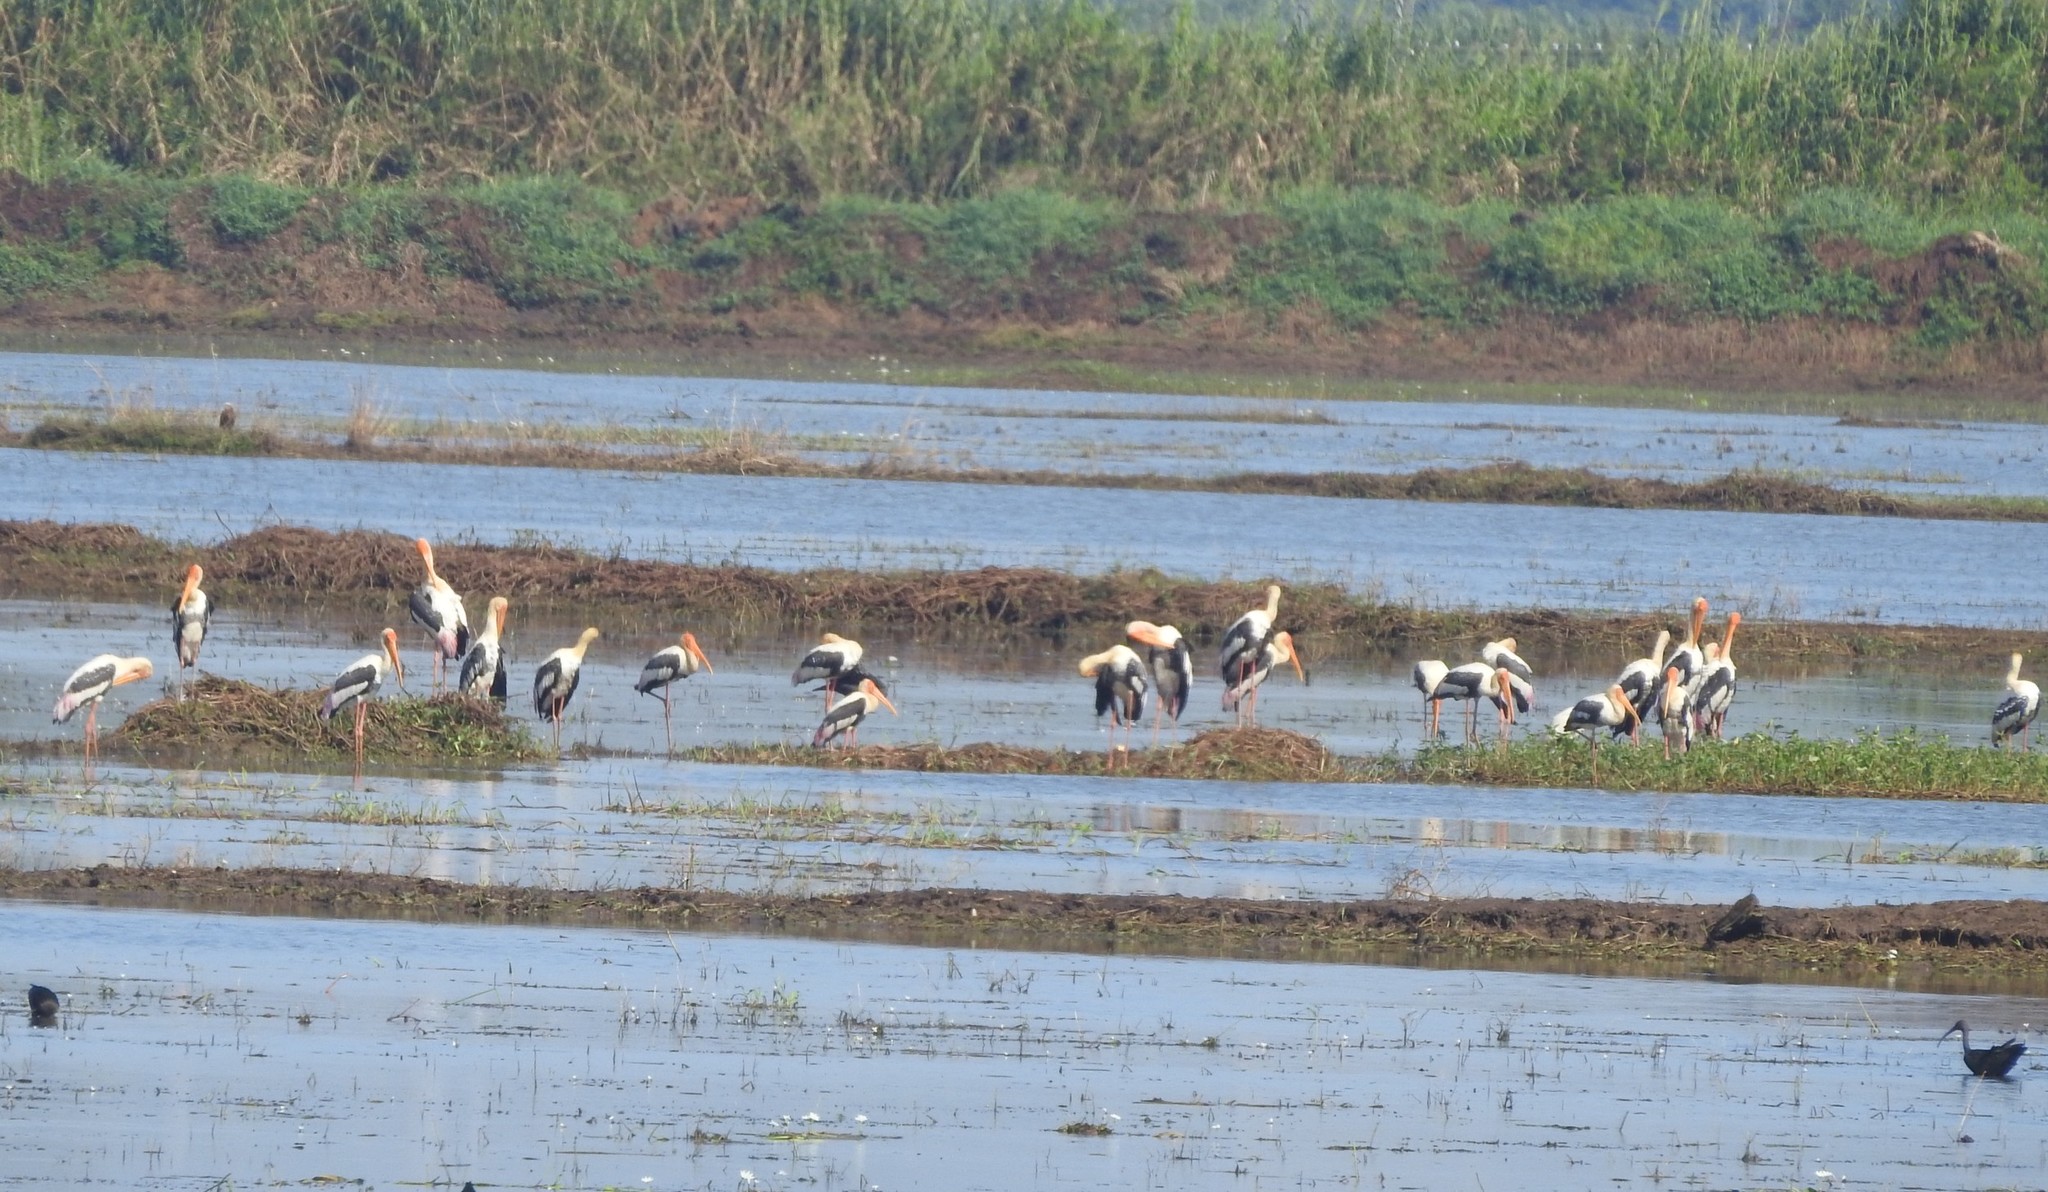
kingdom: Animalia
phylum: Chordata
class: Aves
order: Ciconiiformes
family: Ciconiidae
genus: Mycteria
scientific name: Mycteria leucocephala
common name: Painted stork
